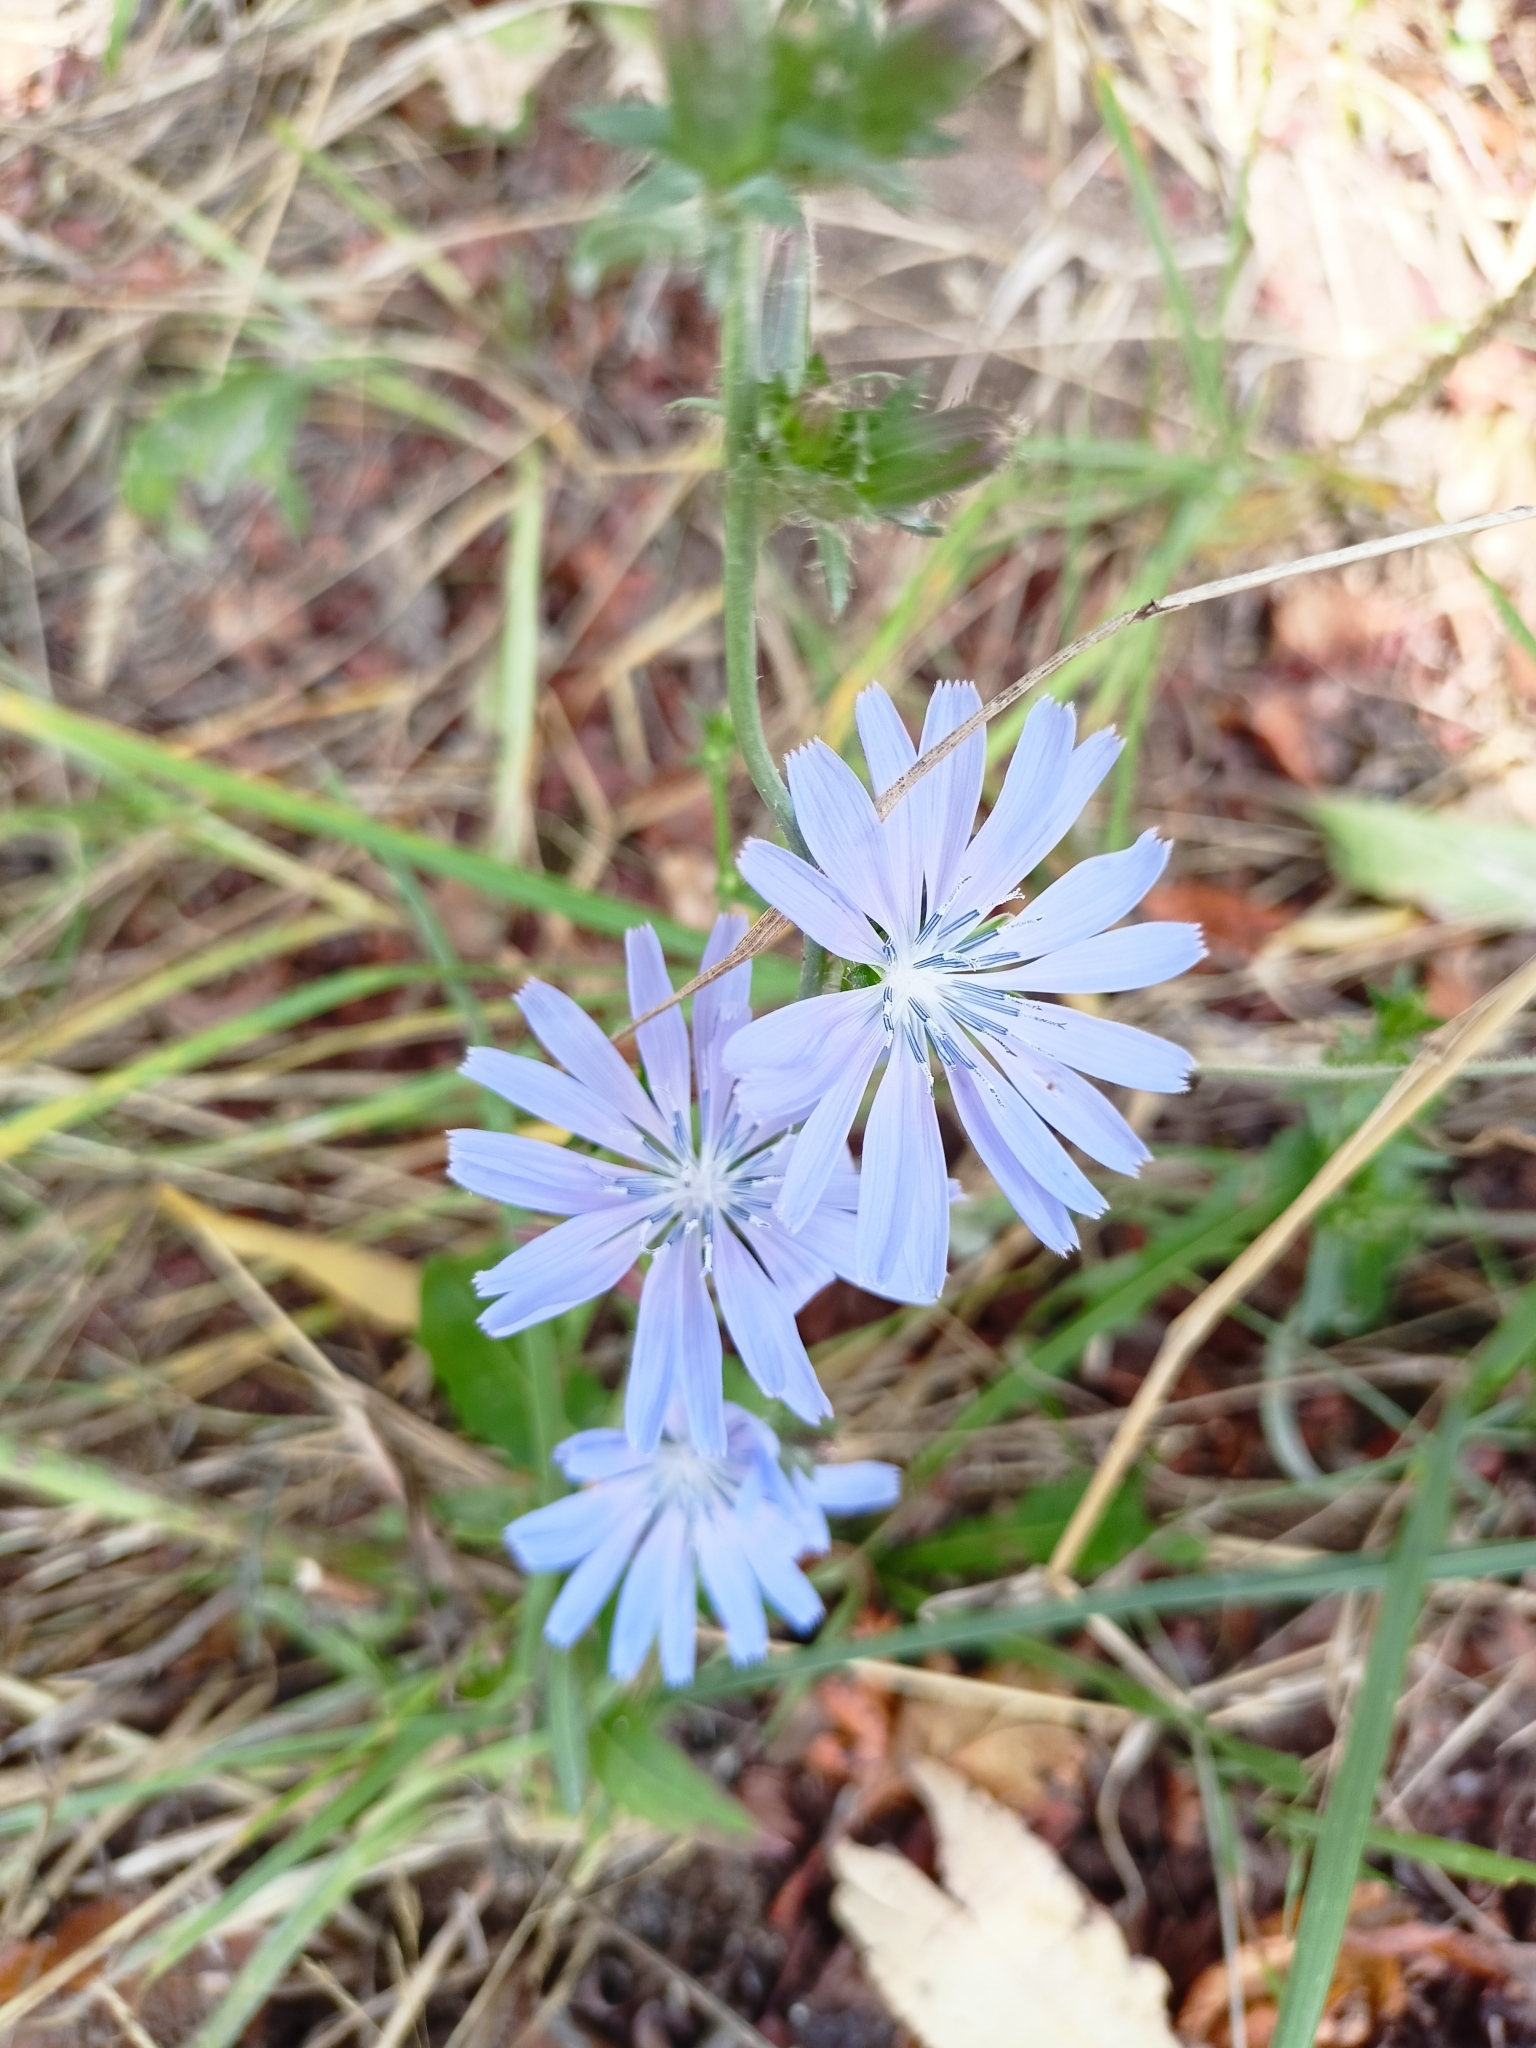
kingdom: Plantae
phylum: Tracheophyta
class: Magnoliopsida
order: Asterales
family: Asteraceae
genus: Cichorium
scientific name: Cichorium intybus
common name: Chicory
